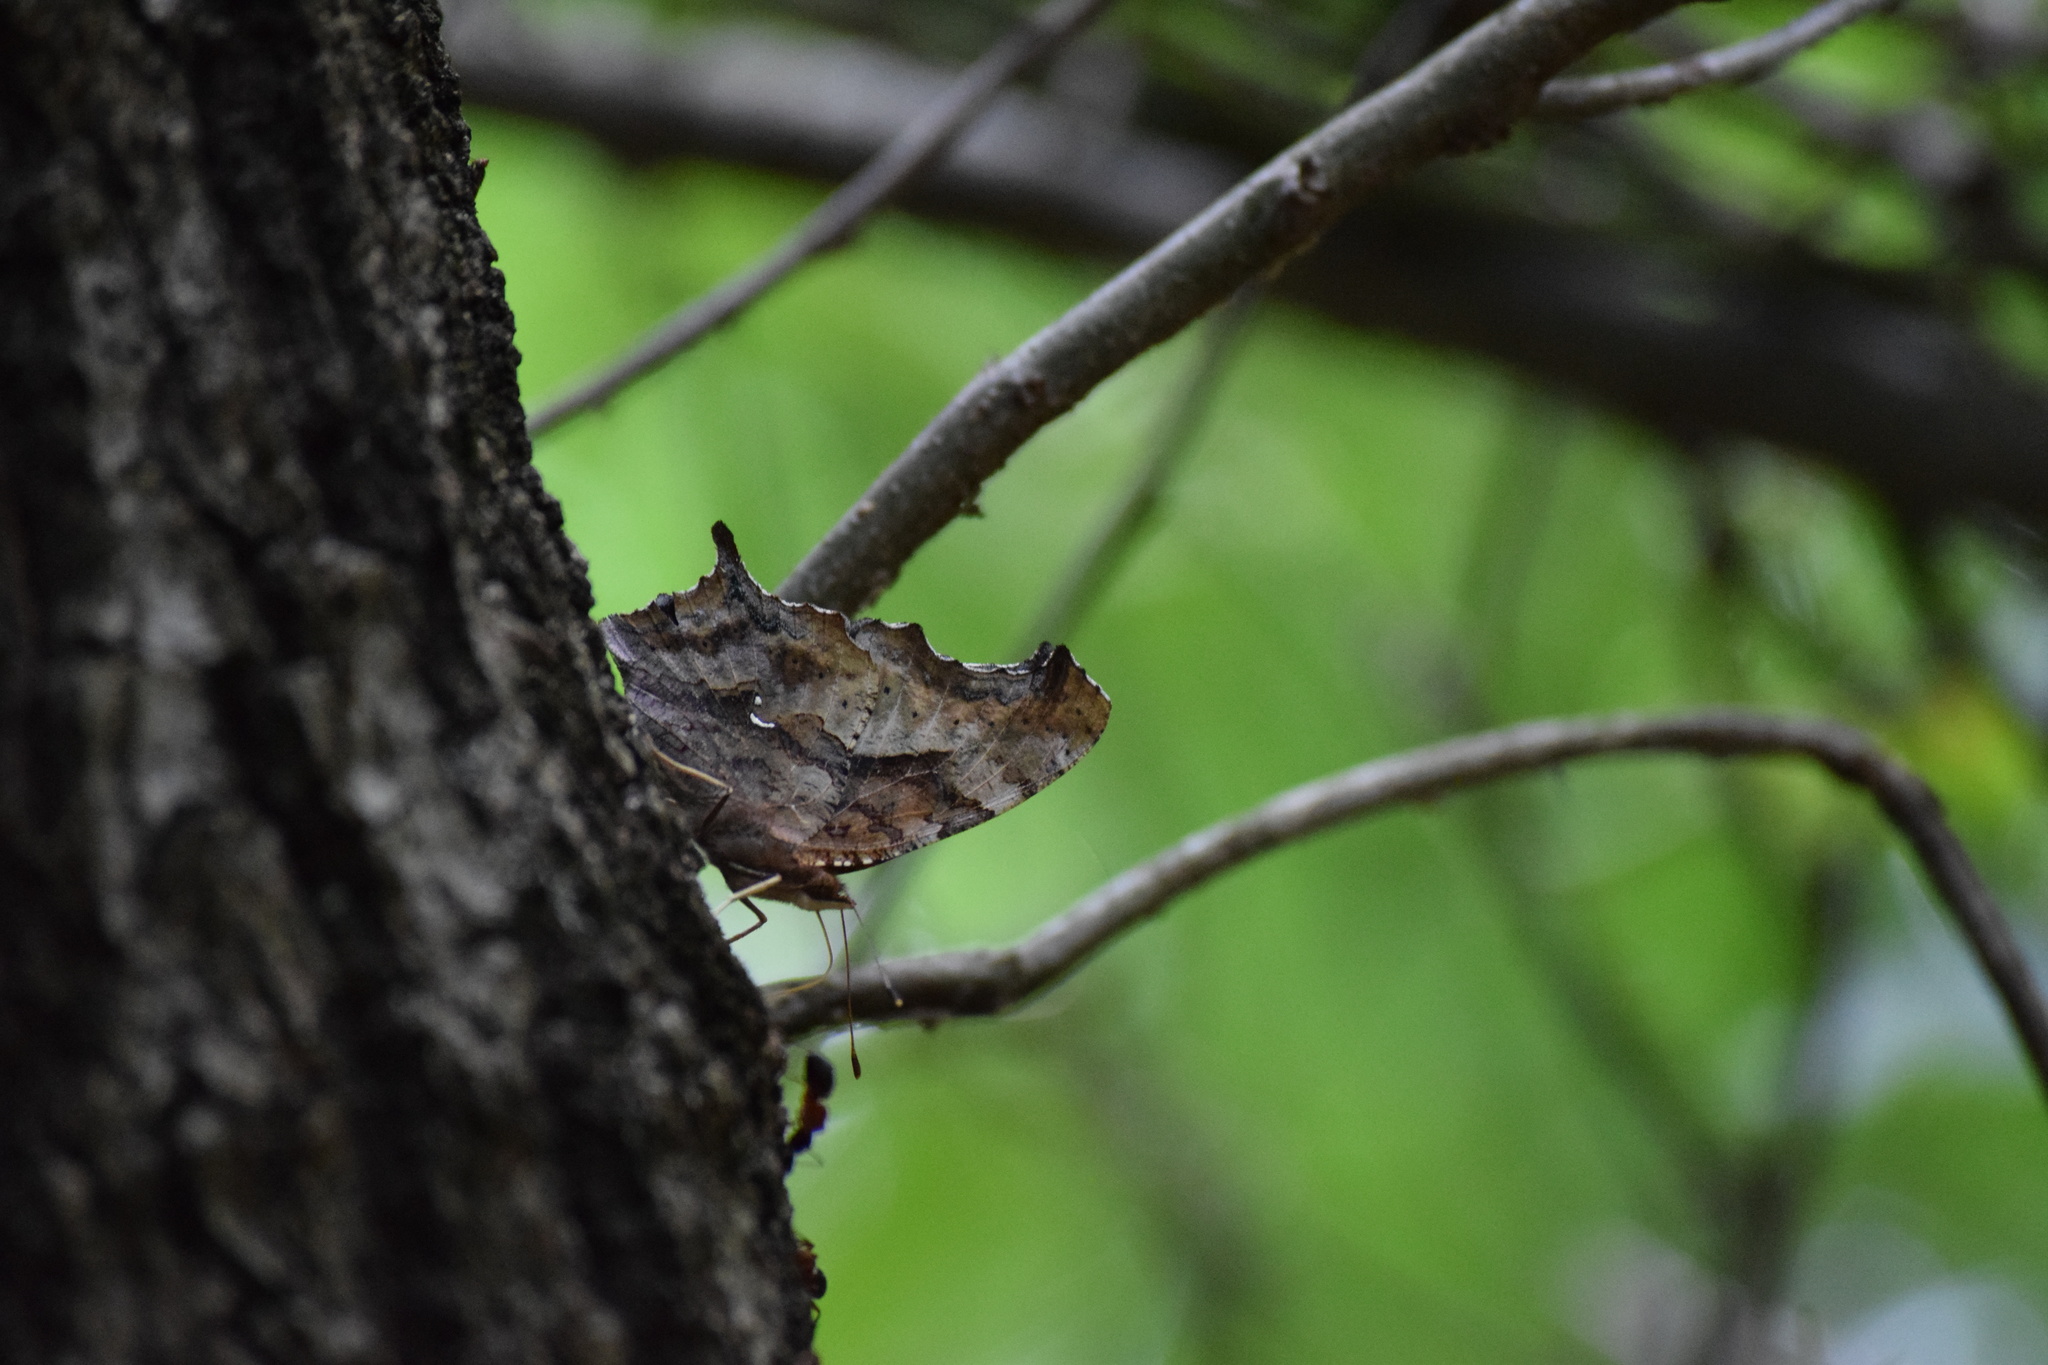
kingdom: Animalia
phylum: Arthropoda
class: Insecta
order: Lepidoptera
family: Nymphalidae
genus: Polygonia
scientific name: Polygonia interrogationis
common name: Question mark
